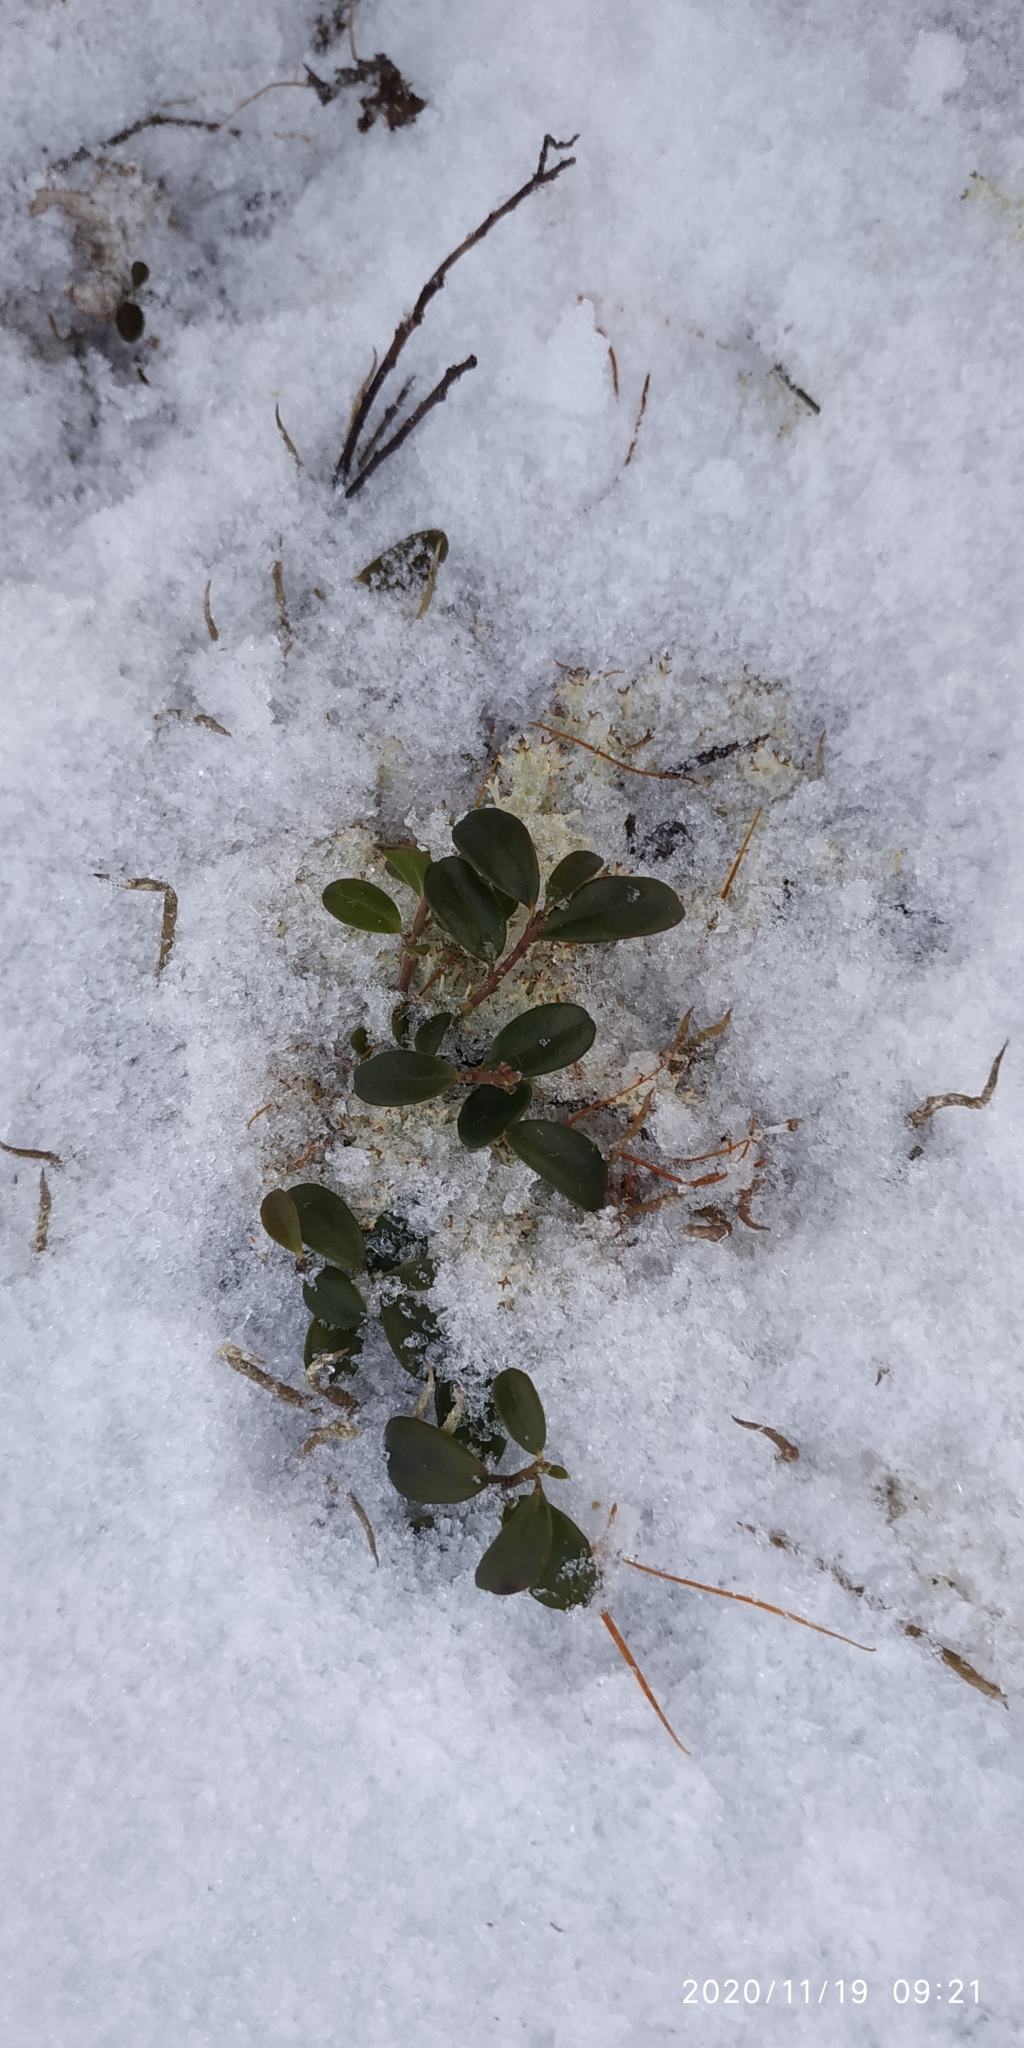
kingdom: Plantae
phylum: Tracheophyta
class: Magnoliopsida
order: Ericales
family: Ericaceae
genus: Vaccinium
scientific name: Vaccinium vitis-idaea
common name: Cowberry
